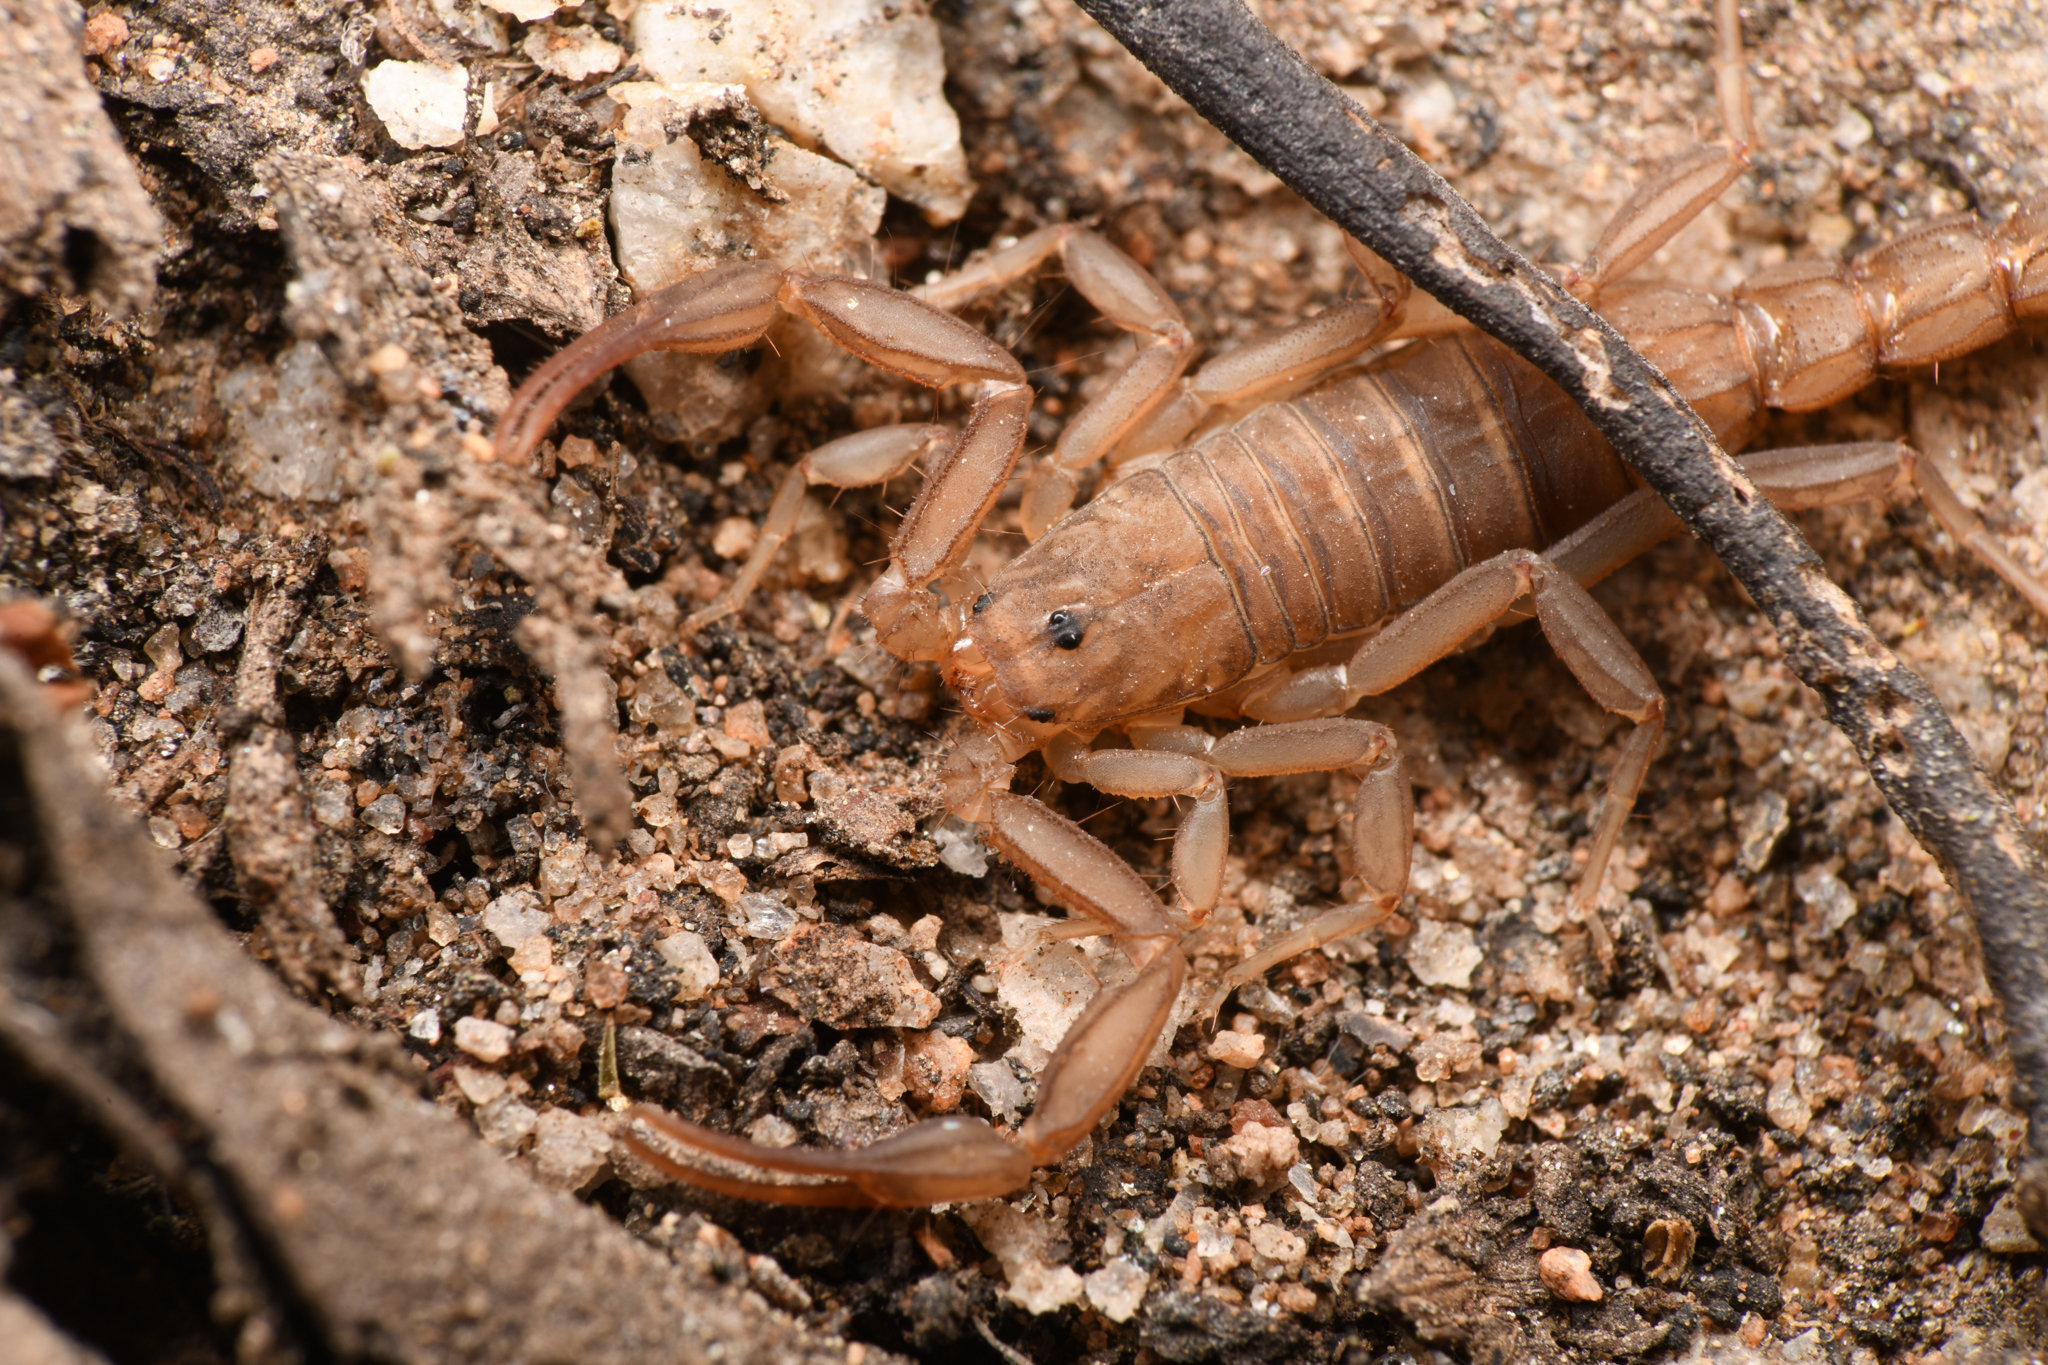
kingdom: Animalia
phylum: Arthropoda
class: Arachnida
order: Scorpiones
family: Vaejovidae
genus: Serradigitus
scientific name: Serradigitus gertschi
